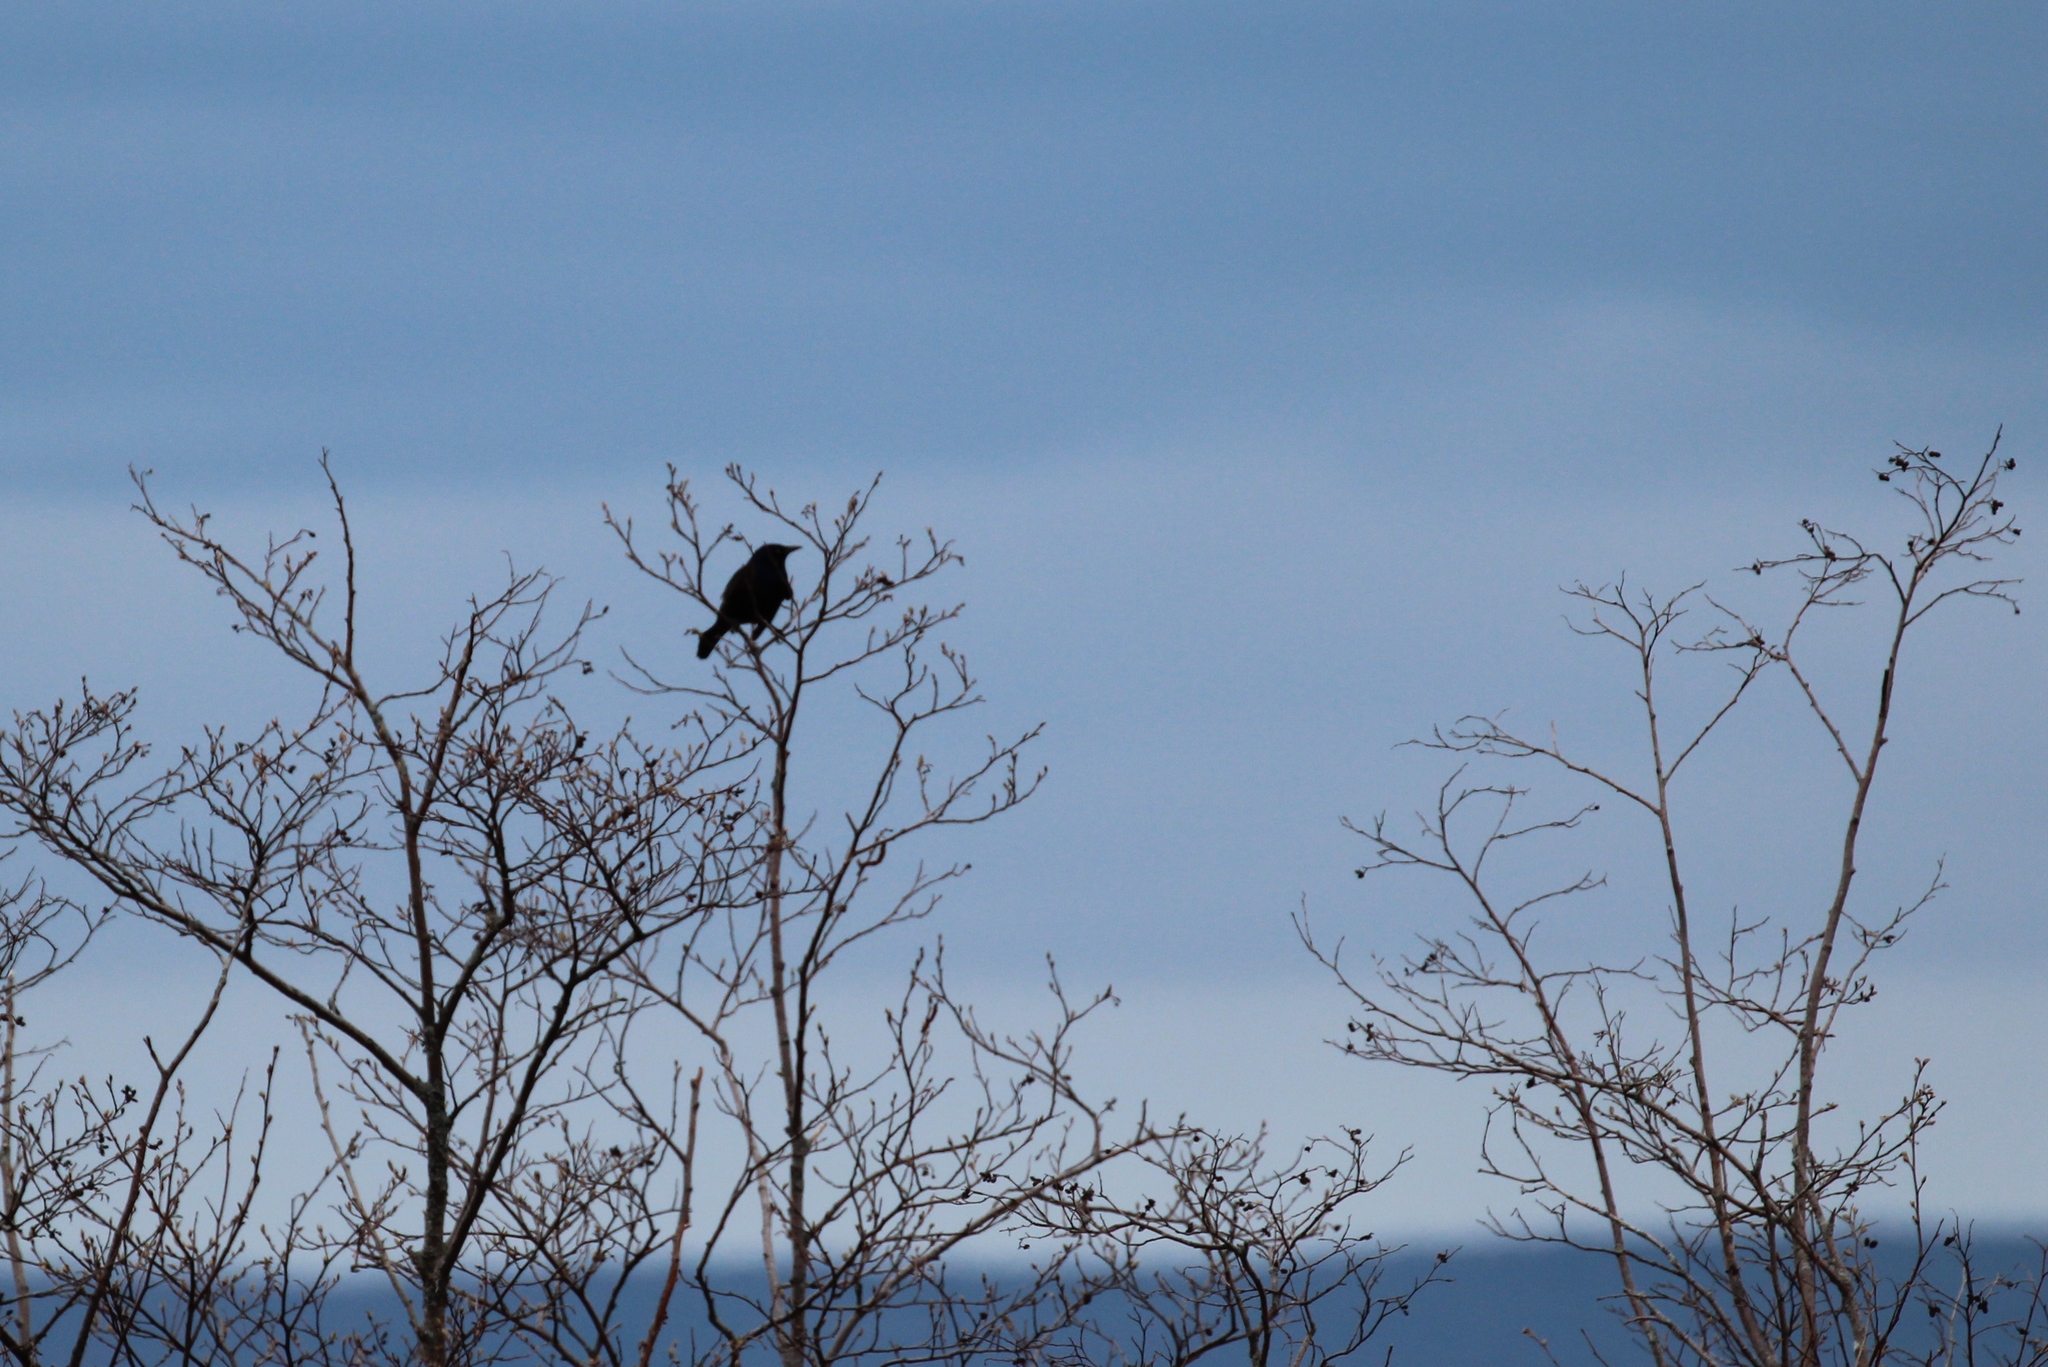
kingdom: Animalia
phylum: Chordata
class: Aves
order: Passeriformes
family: Icteridae
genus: Quiscalus
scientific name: Quiscalus quiscula
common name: Common grackle
